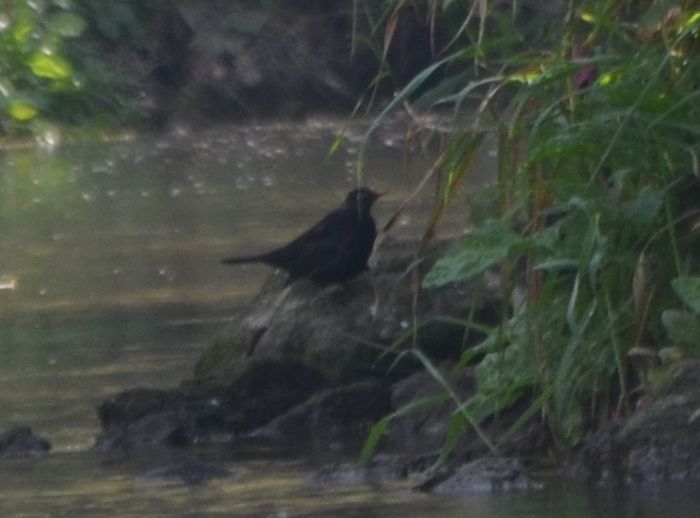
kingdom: Animalia
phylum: Chordata
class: Aves
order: Passeriformes
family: Turdidae
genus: Turdus
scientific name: Turdus merula
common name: Common blackbird
